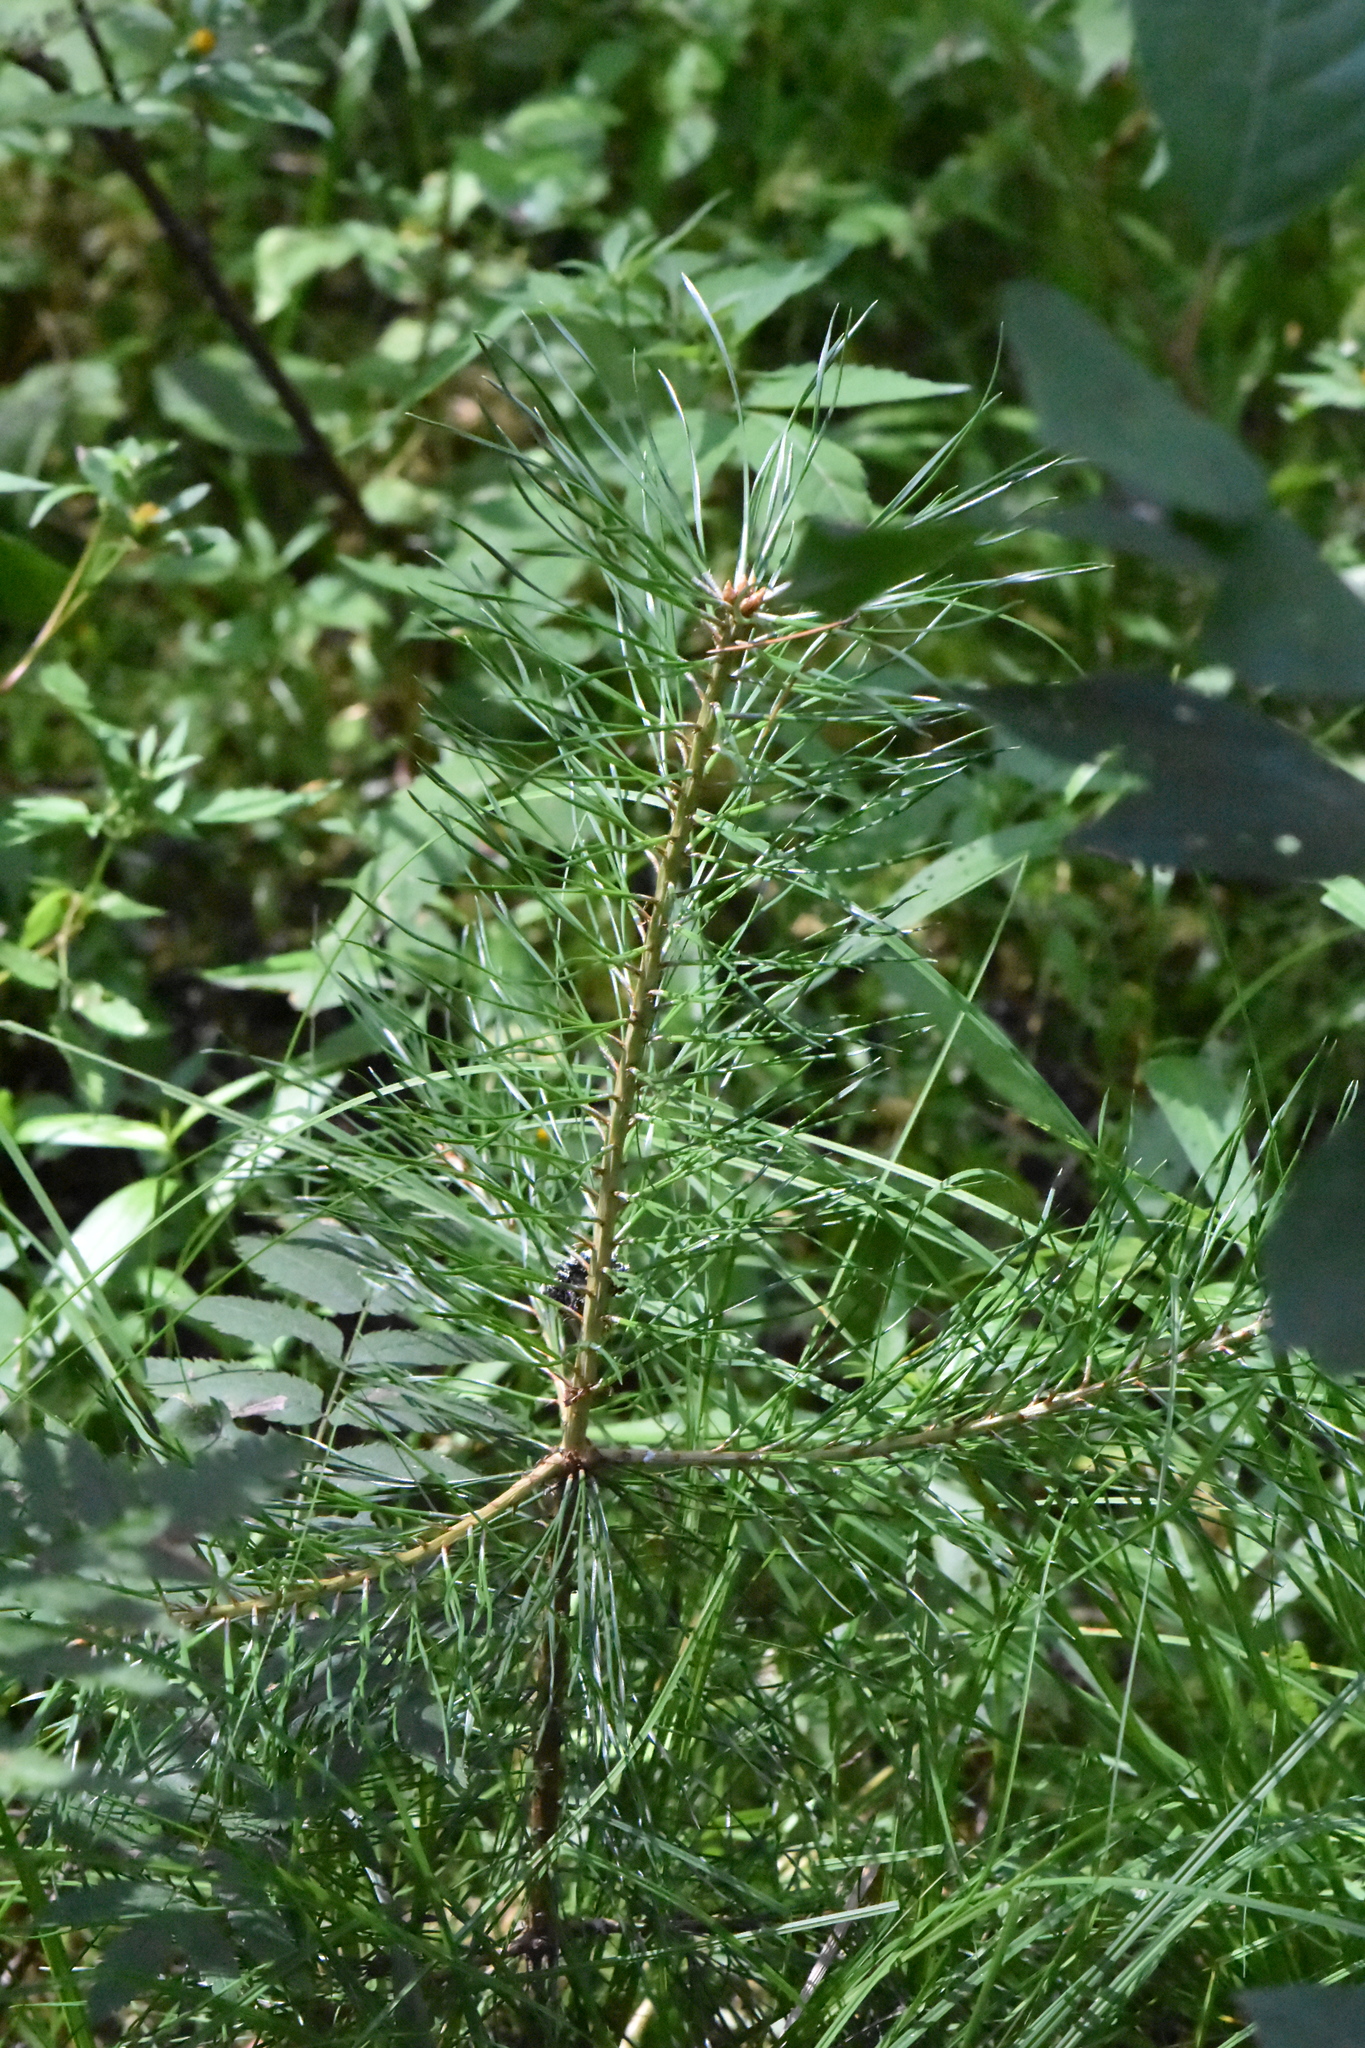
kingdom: Plantae
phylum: Tracheophyta
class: Pinopsida
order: Pinales
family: Pinaceae
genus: Pinus
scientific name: Pinus sylvestris
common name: Scots pine
